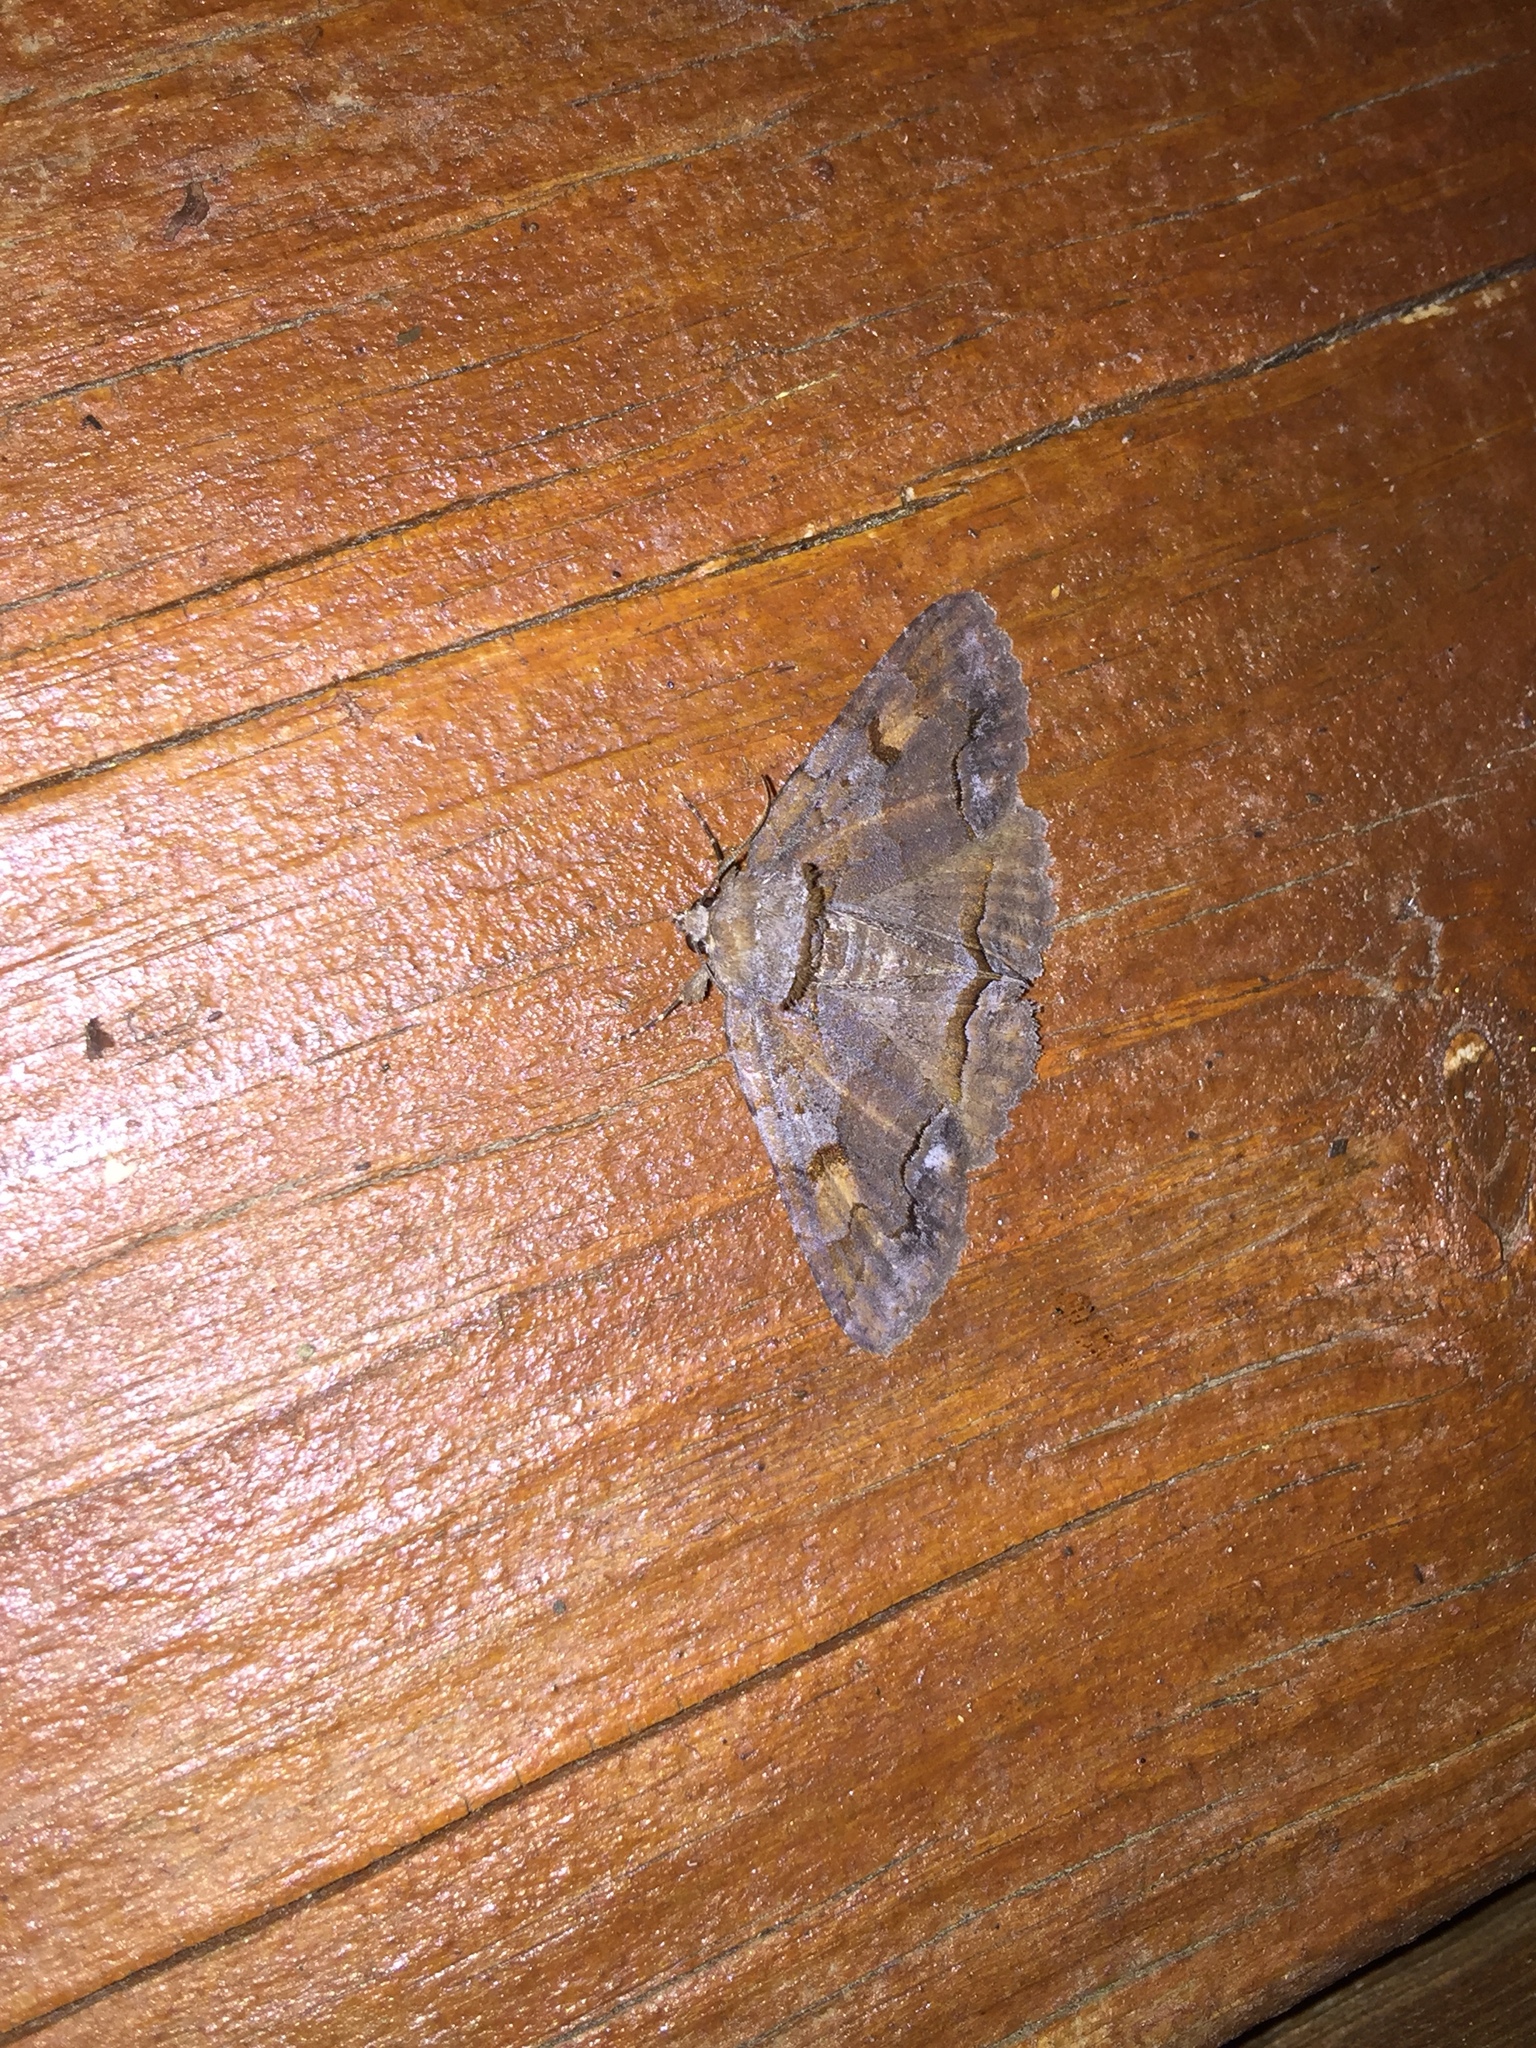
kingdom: Animalia
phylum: Arthropoda
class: Insecta
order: Lepidoptera
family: Erebidae
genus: Zale
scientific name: Zale metatoides
